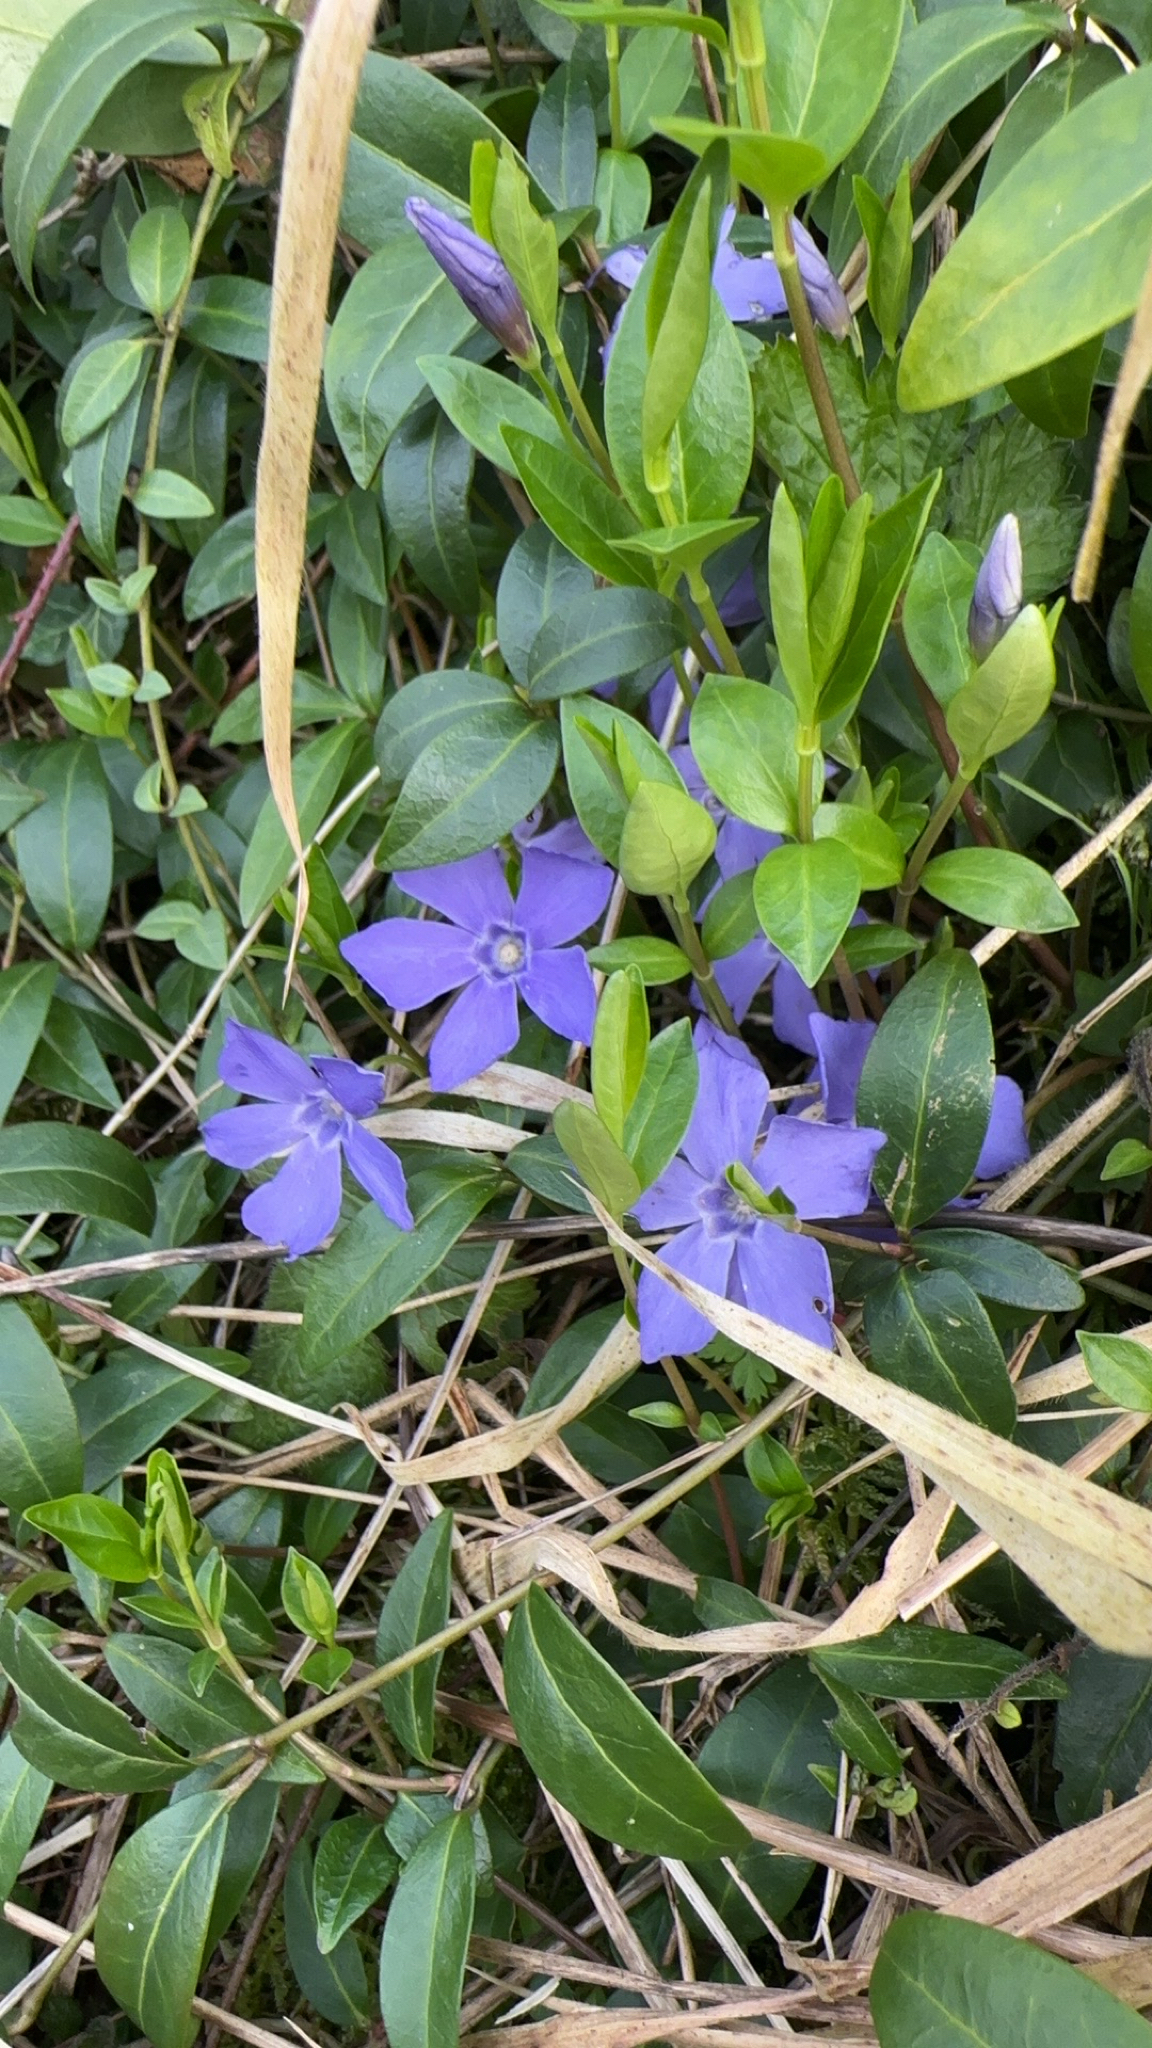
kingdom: Plantae
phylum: Tracheophyta
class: Magnoliopsida
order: Gentianales
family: Apocynaceae
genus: Vinca
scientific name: Vinca minor
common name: Lesser periwinkle
